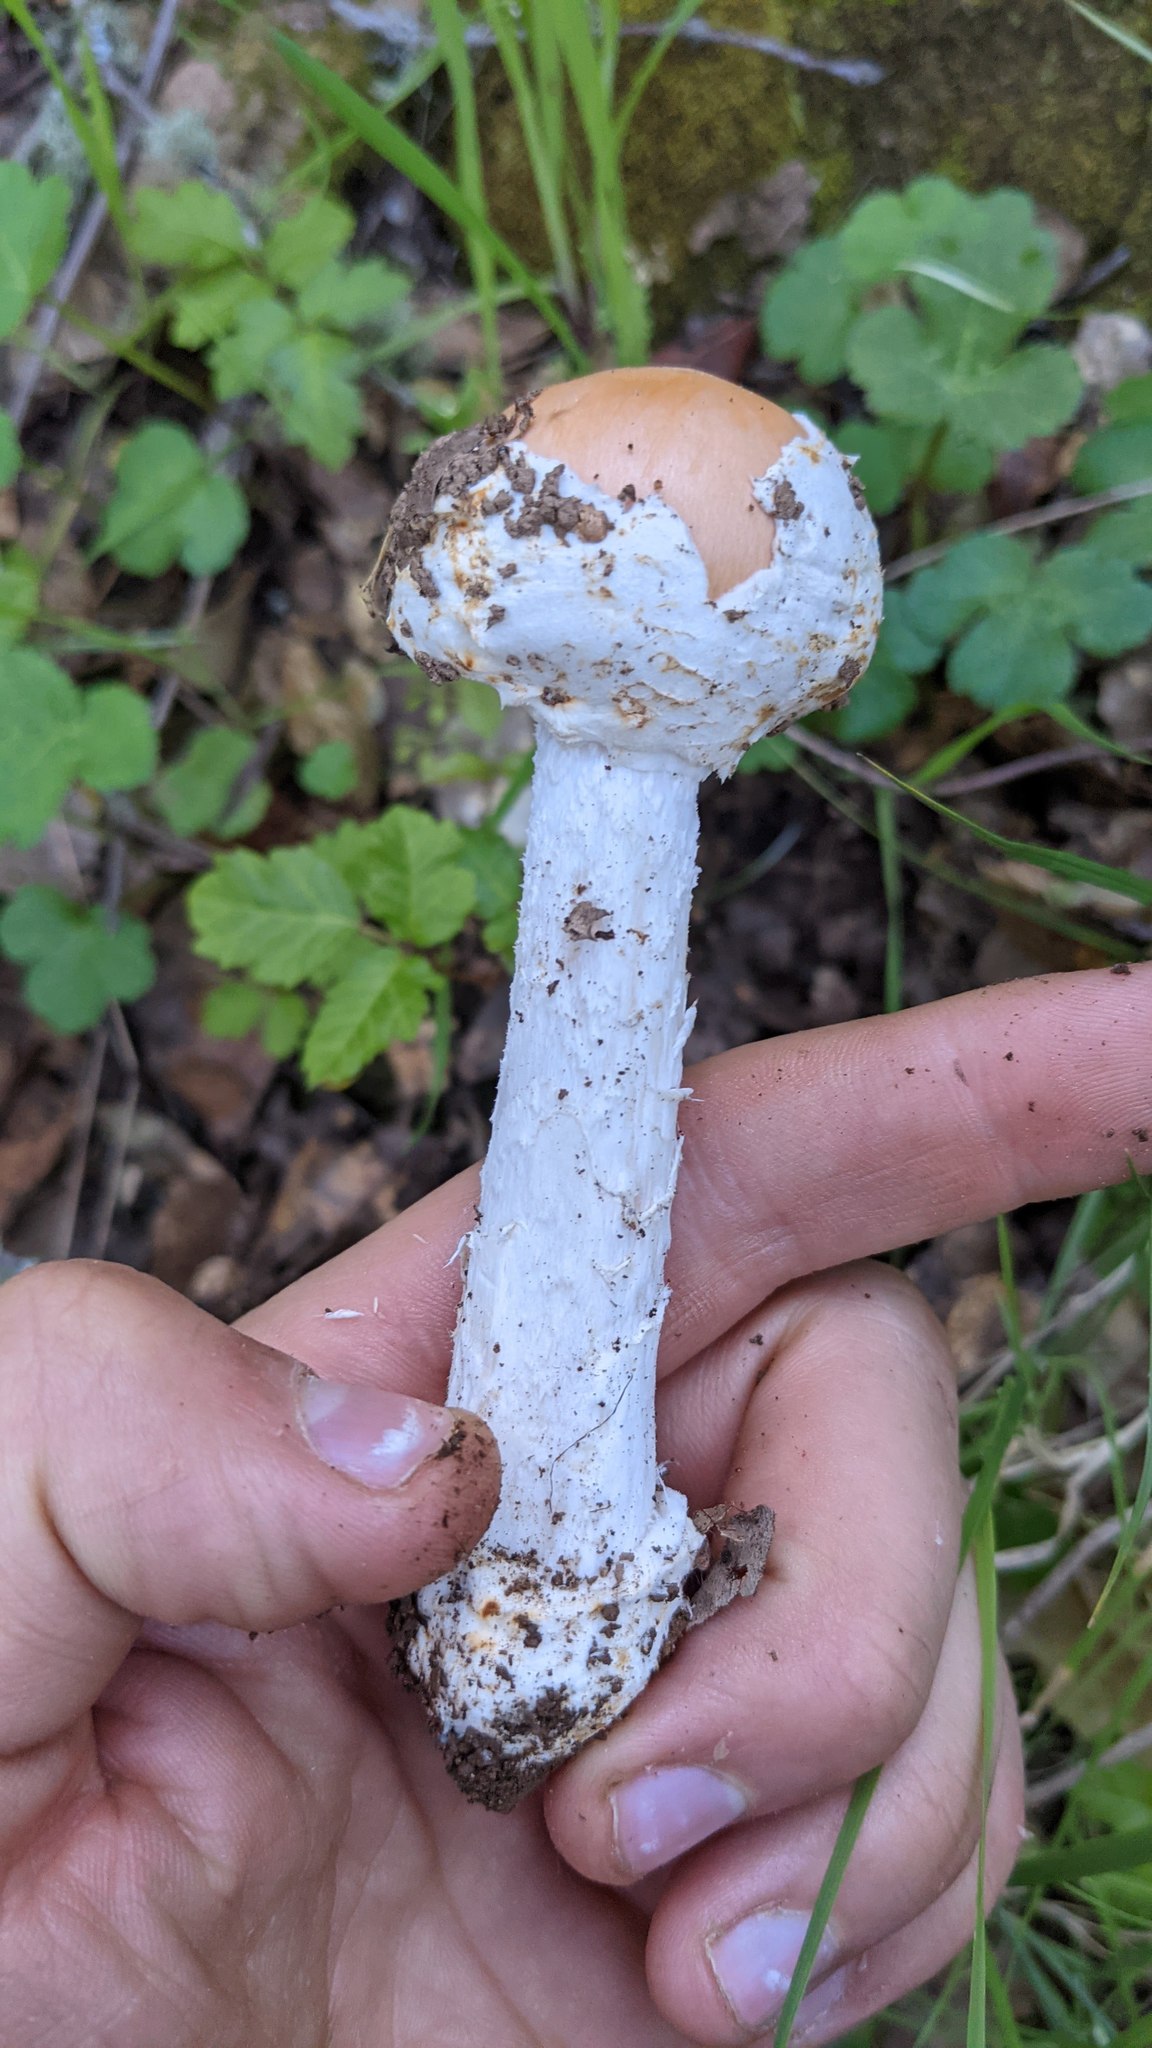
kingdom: Fungi
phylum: Basidiomycota
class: Agaricomycetes
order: Agaricales
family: Amanitaceae
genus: Amanita
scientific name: Amanita velosa
